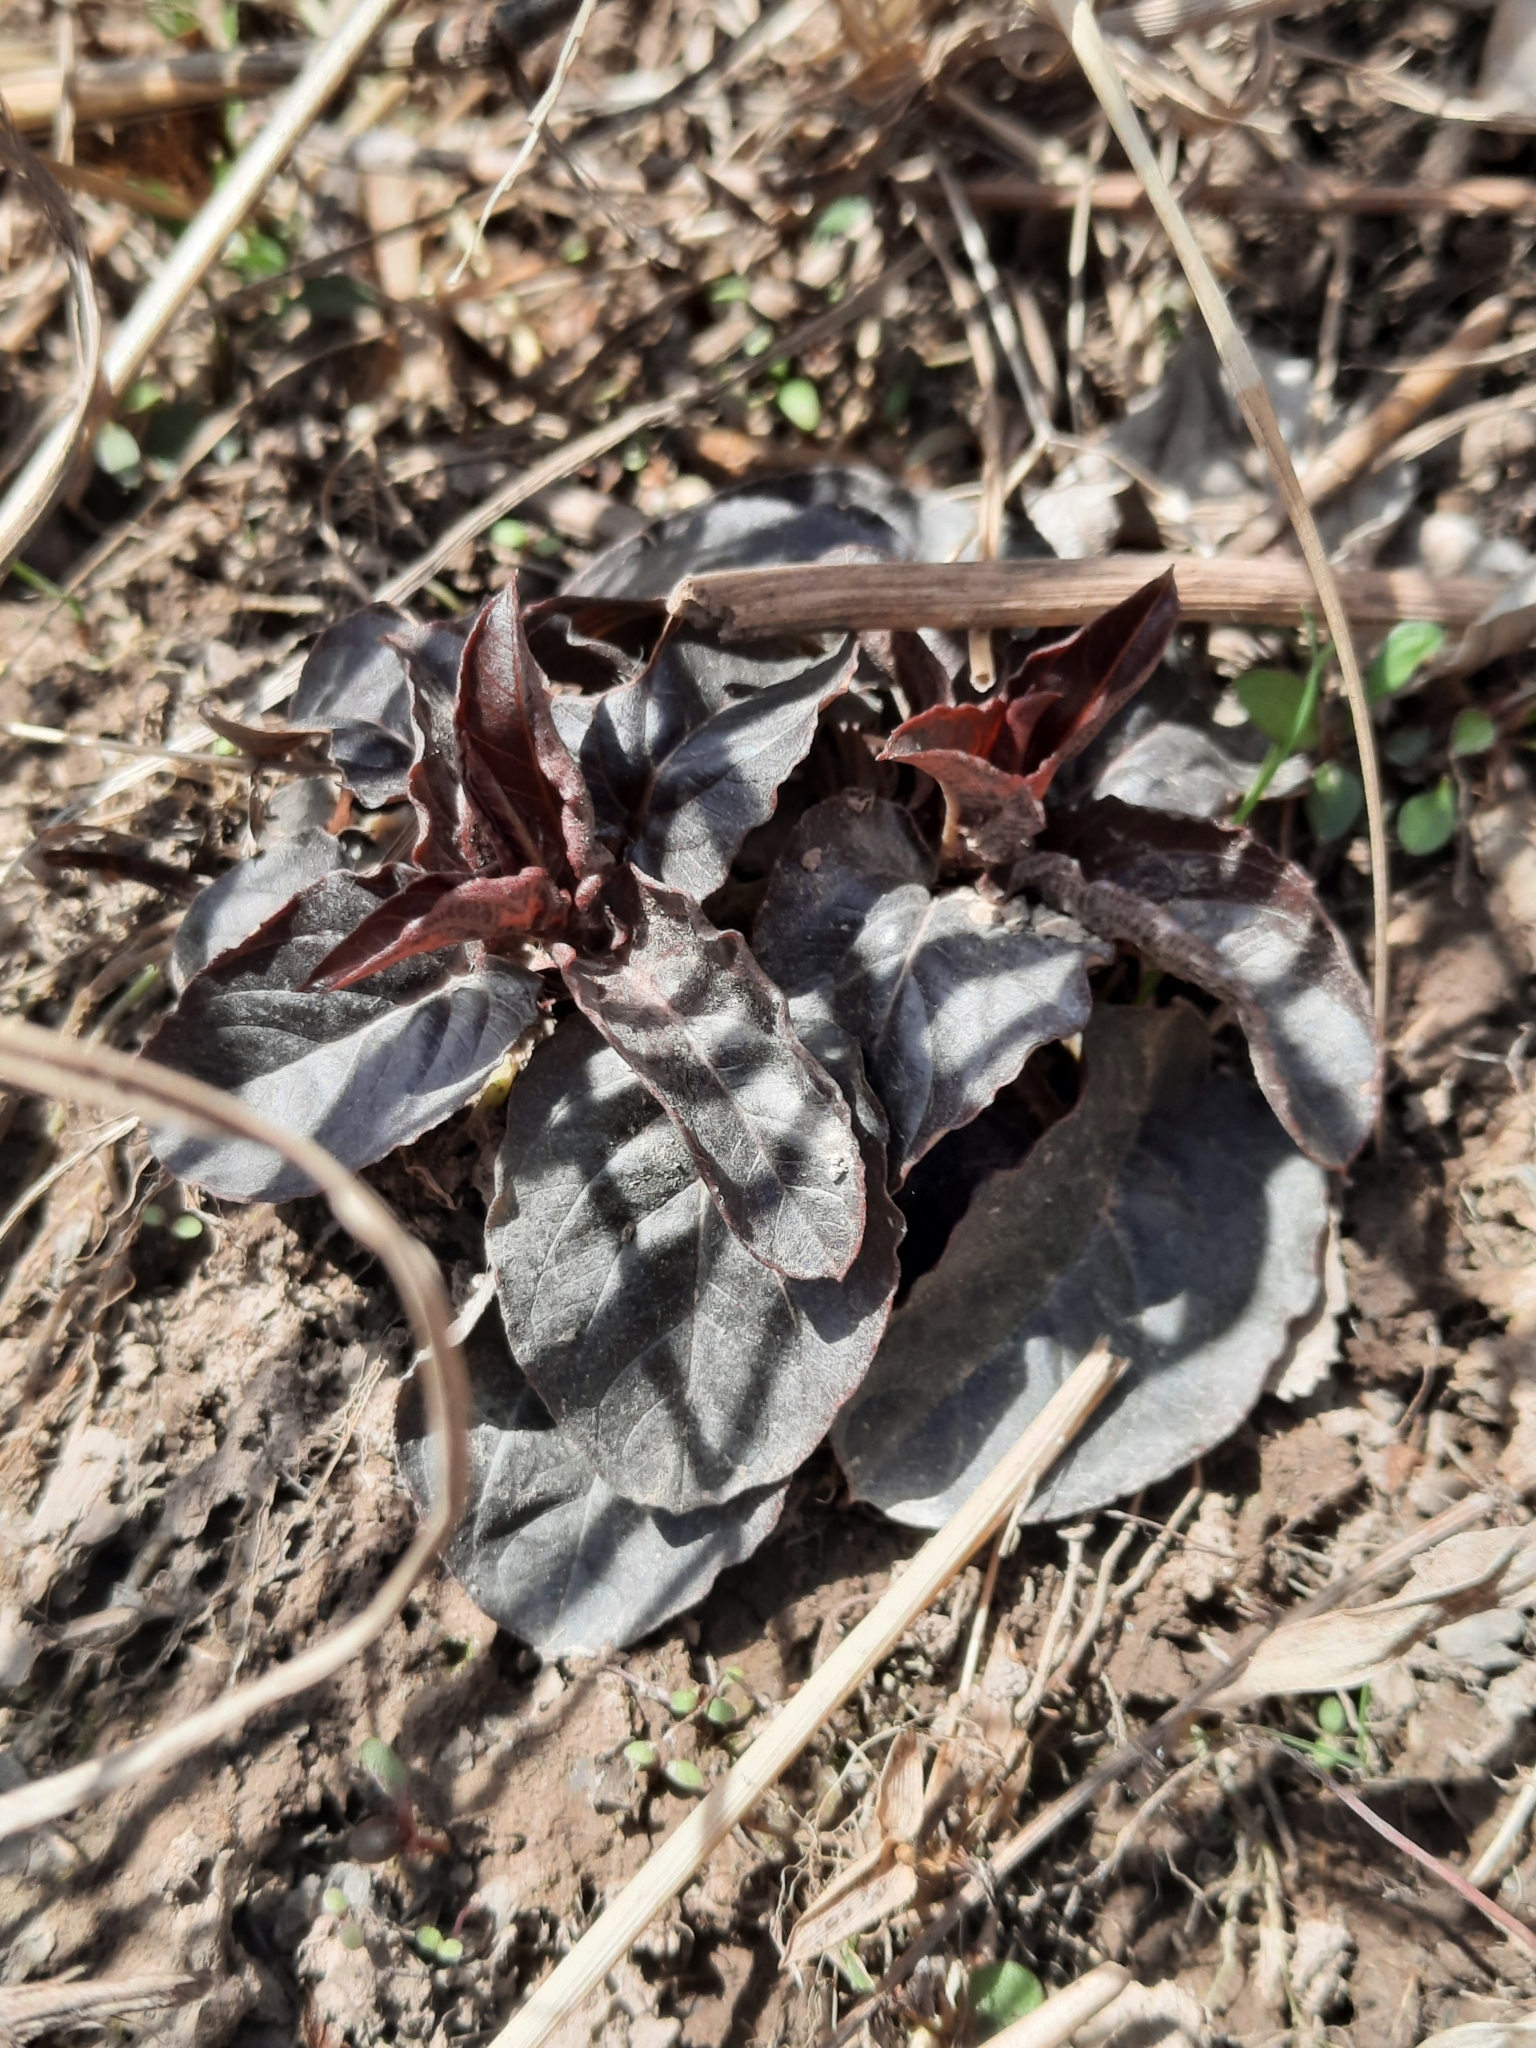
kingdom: Plantae
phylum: Tracheophyta
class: Magnoliopsida
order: Ericales
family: Primulaceae
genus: Lysimachia
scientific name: Lysimachia ciliata
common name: Fringed loosestrife
